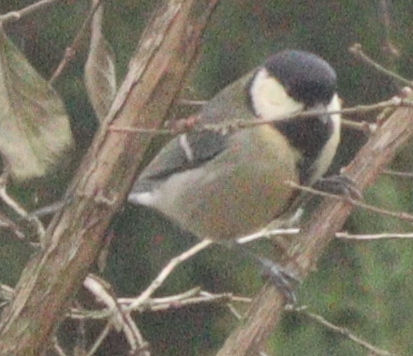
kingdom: Animalia
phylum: Chordata
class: Aves
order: Passeriformes
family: Paridae
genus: Parus
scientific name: Parus major
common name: Great tit
